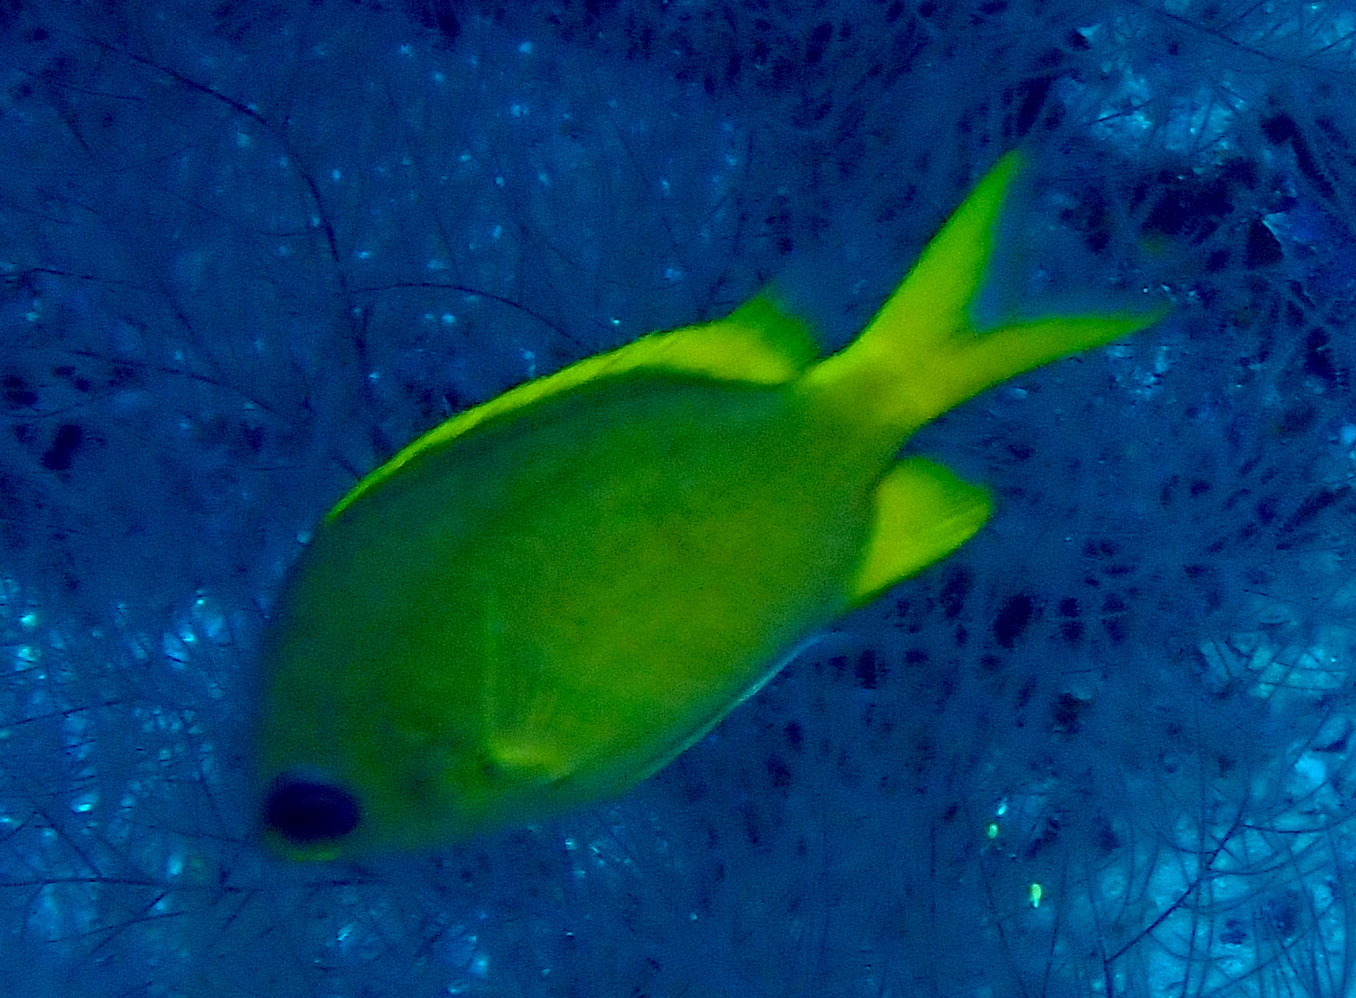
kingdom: Animalia
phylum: Chordata
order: Perciformes
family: Pomacentridae
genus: Chromis
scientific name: Chromis analis
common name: Yellow chromis
